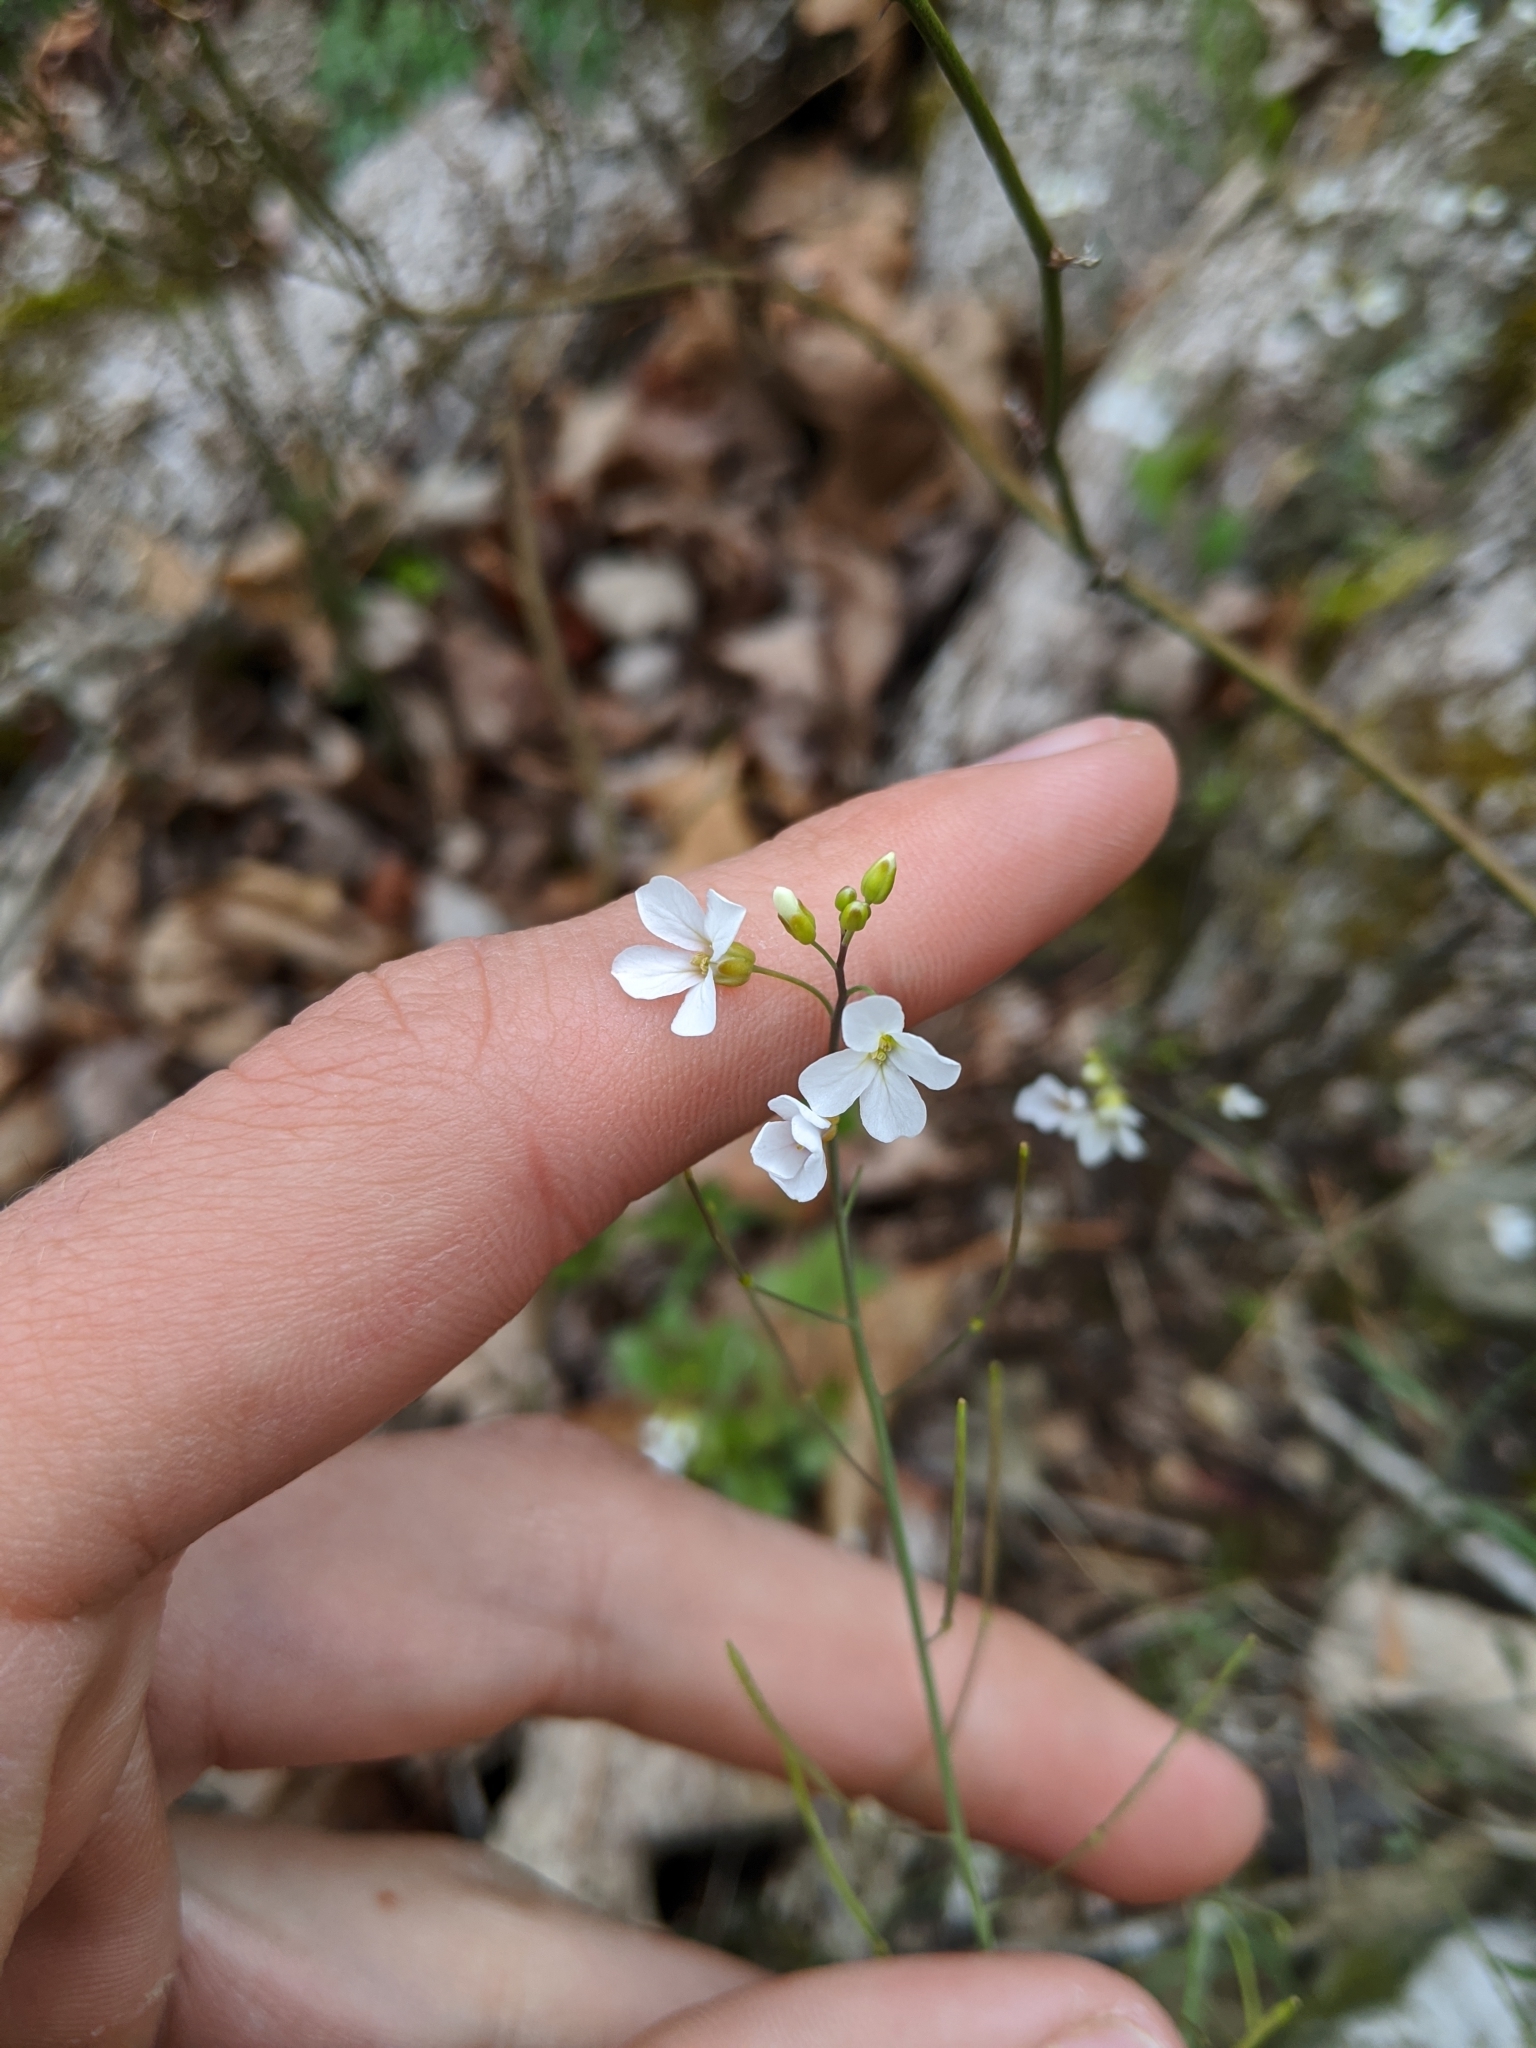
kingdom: Plantae
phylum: Tracheophyta
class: Magnoliopsida
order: Brassicales
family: Brassicaceae
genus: Arabidopsis
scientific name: Arabidopsis lyrata
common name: Lyrate rockcress
